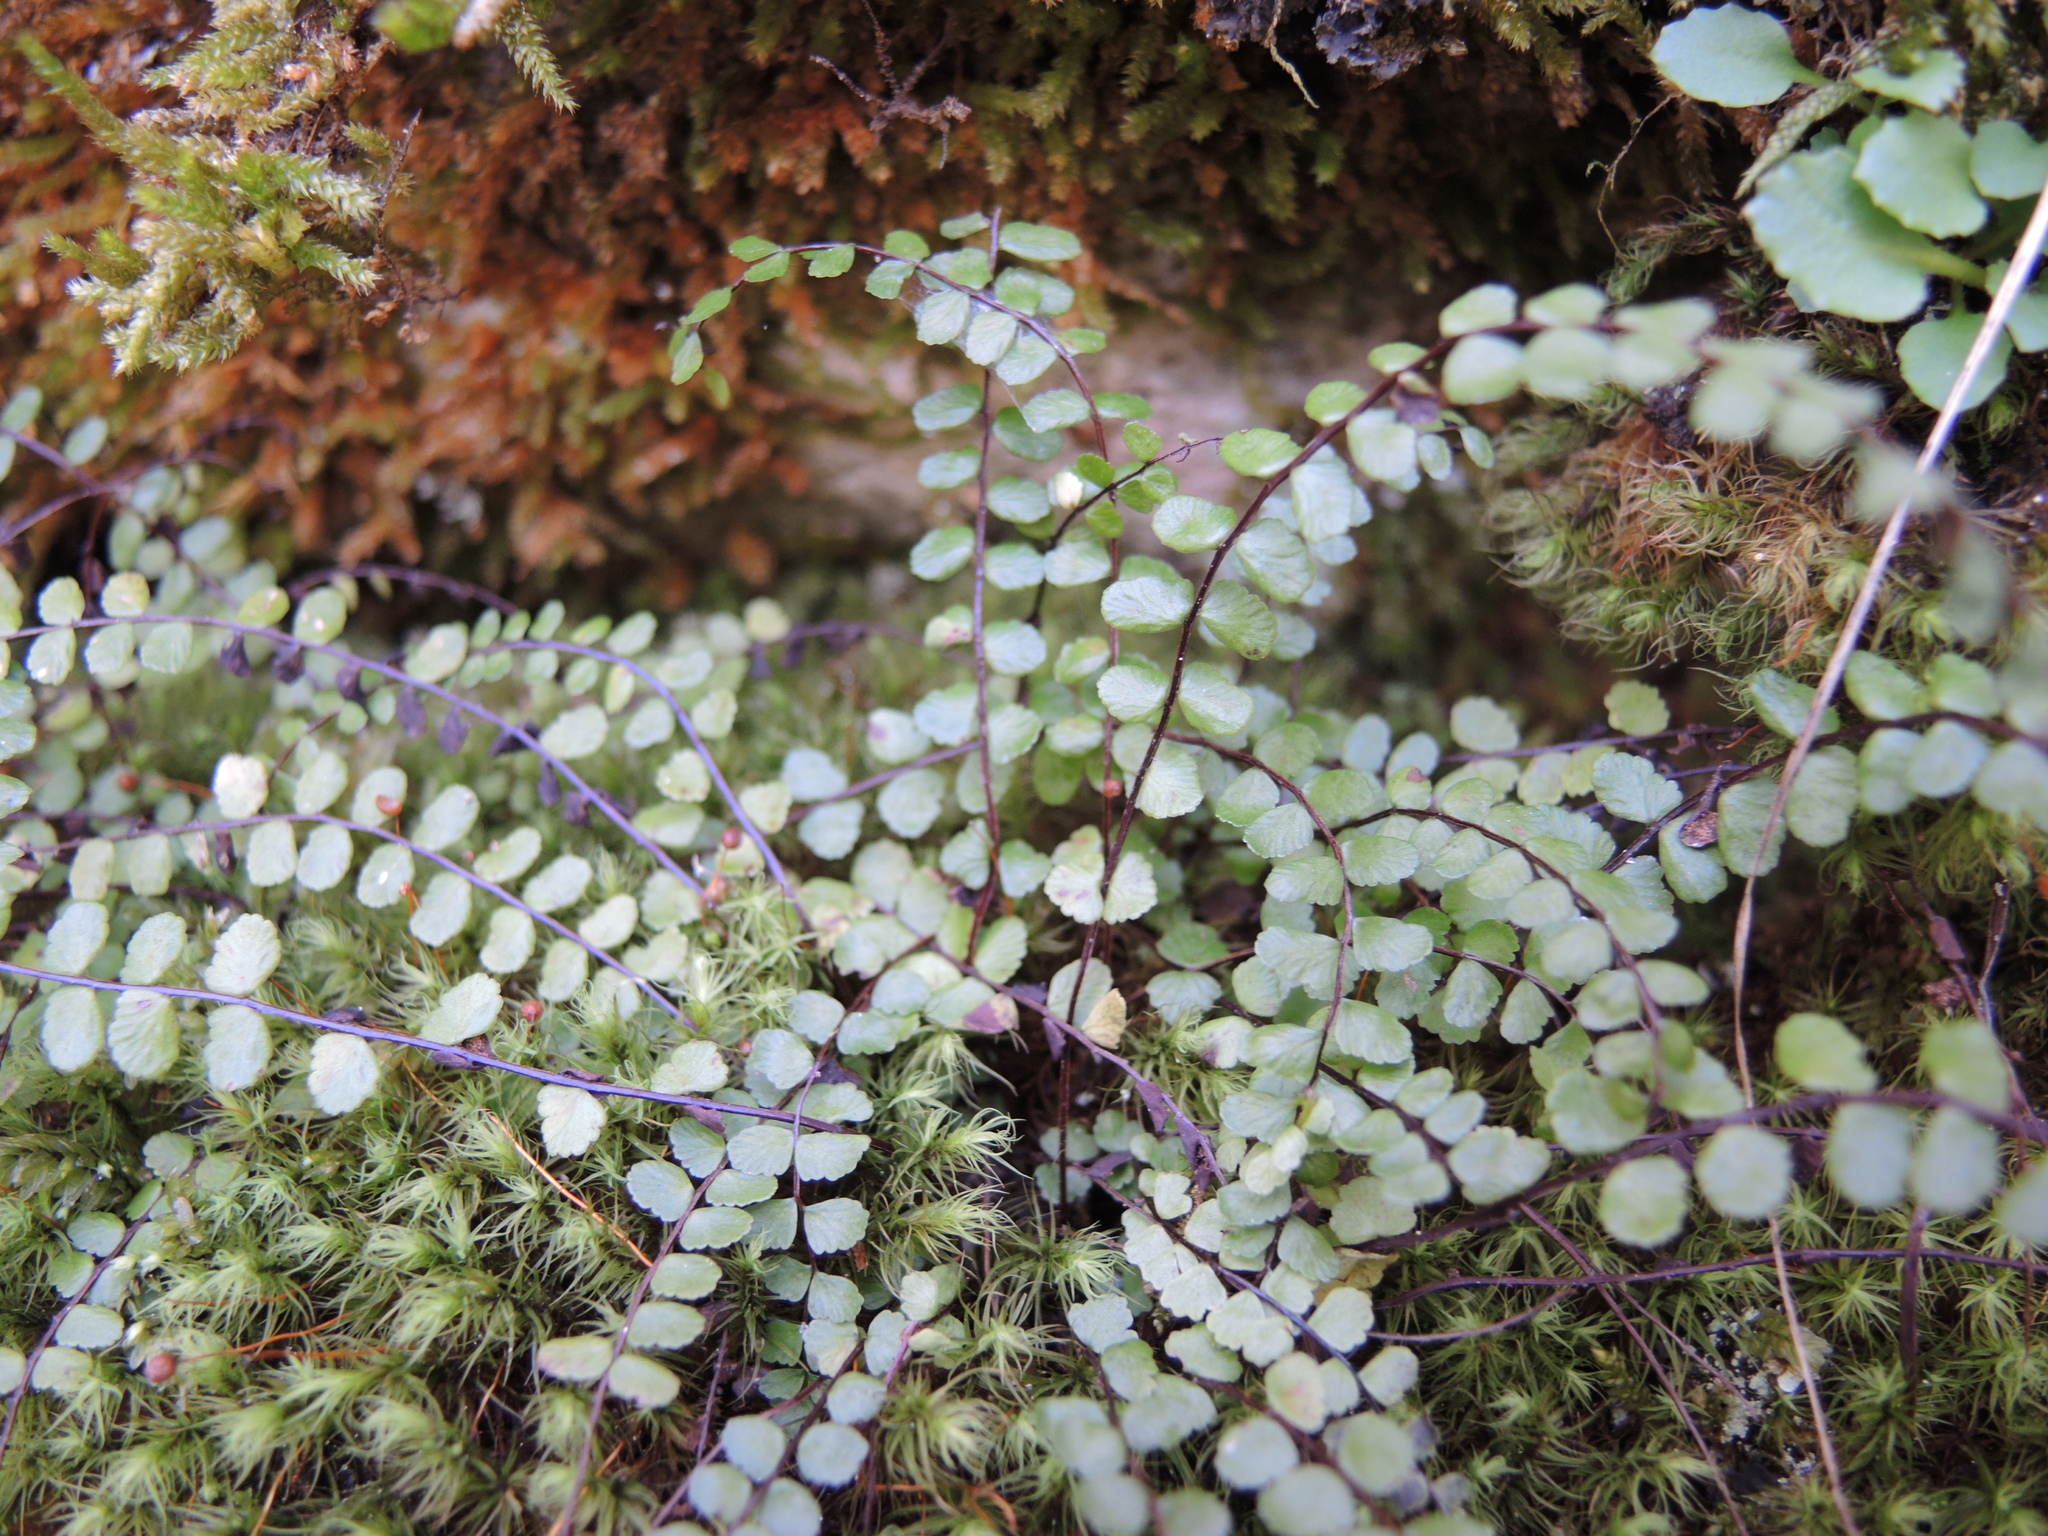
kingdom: Plantae
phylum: Tracheophyta
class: Polypodiopsida
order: Polypodiales
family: Aspleniaceae
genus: Asplenium
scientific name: Asplenium trichomanes
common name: Maidenhair spleenwort
